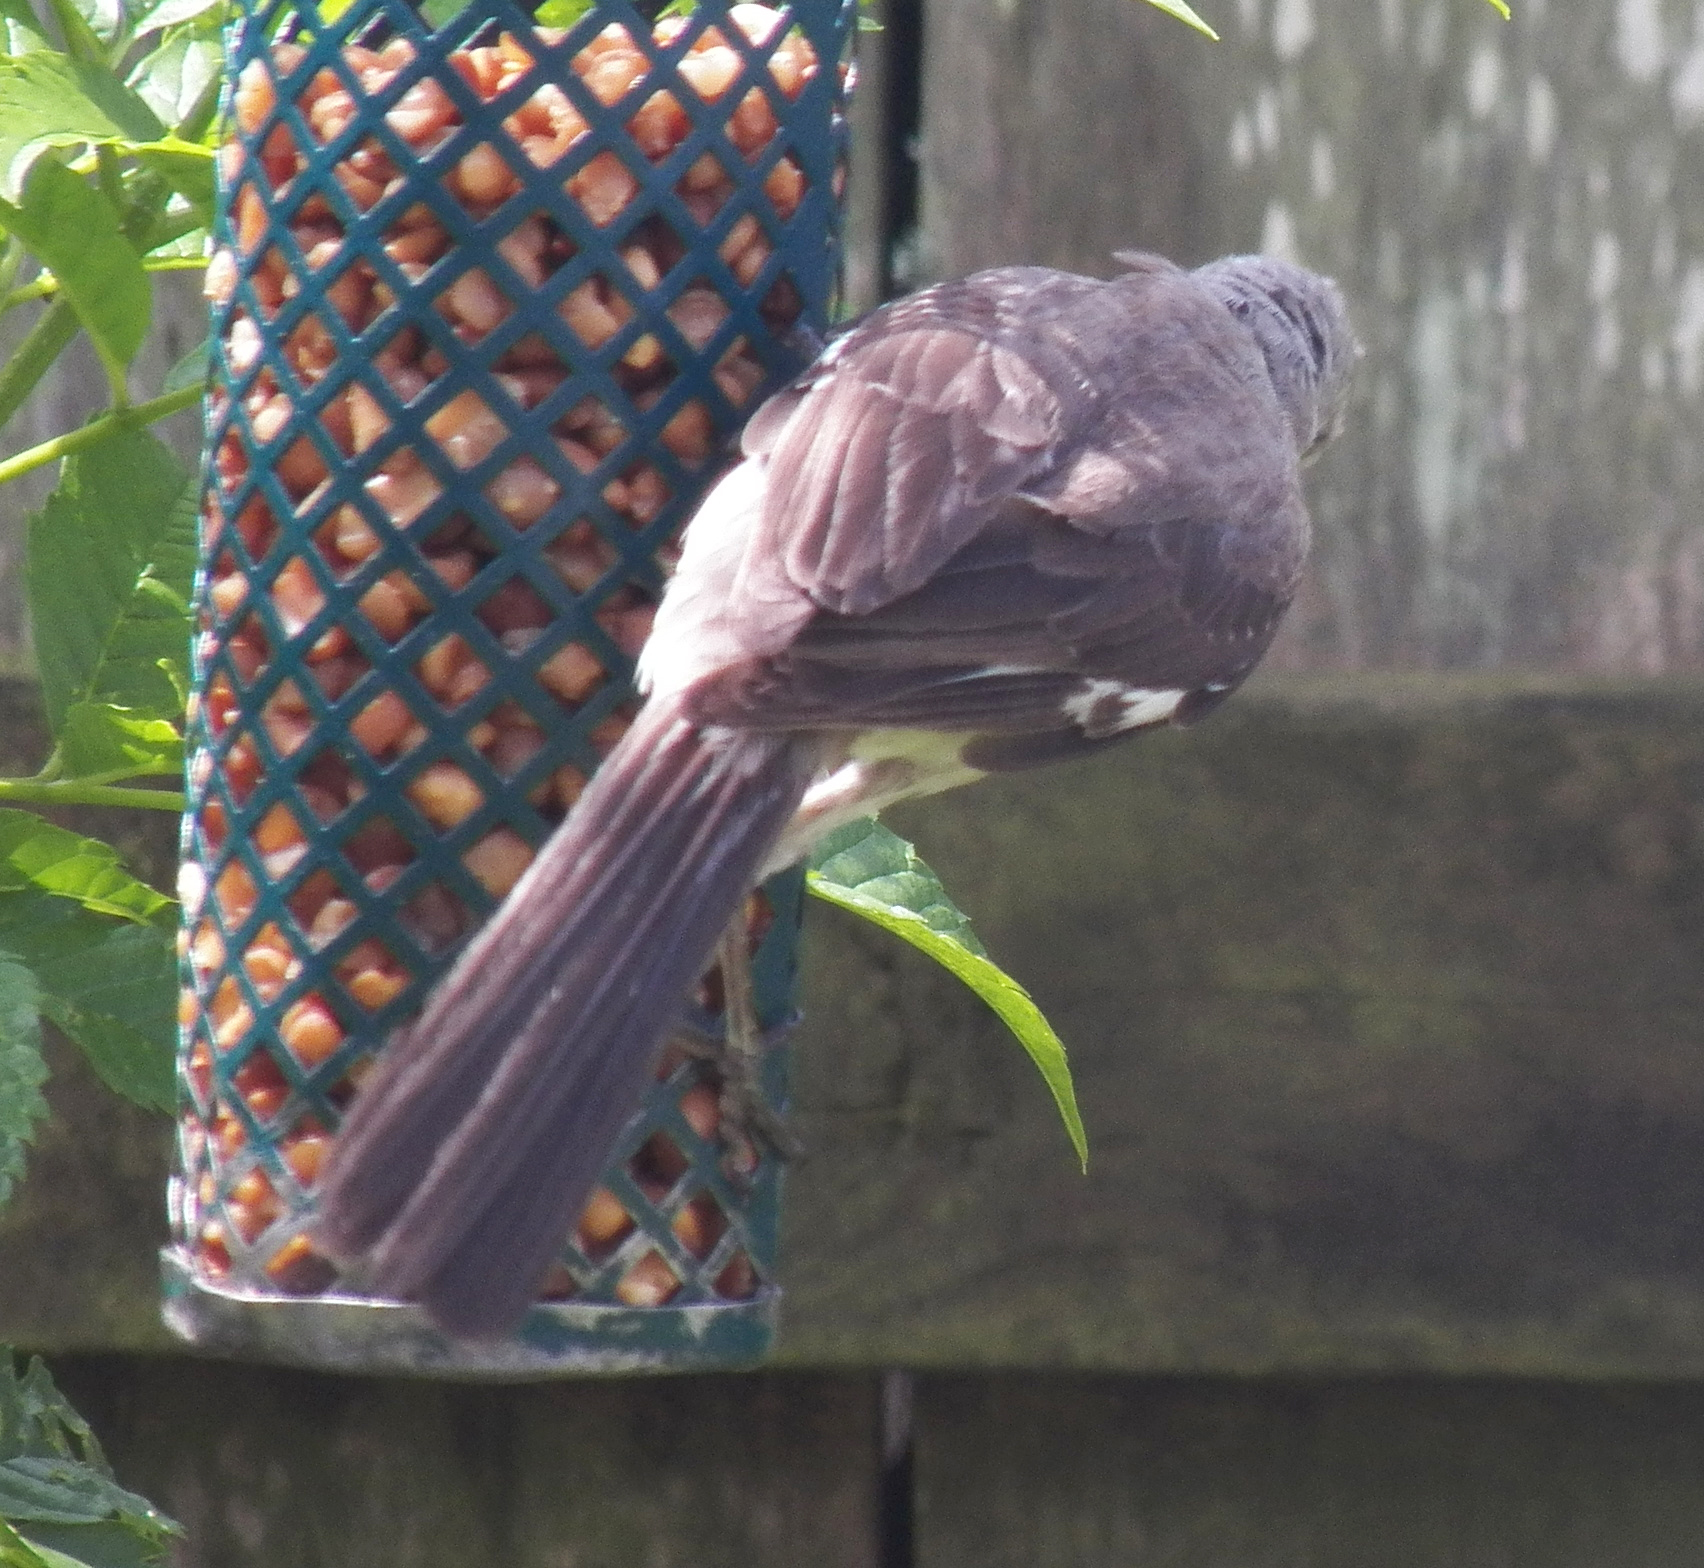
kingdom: Animalia
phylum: Chordata
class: Aves
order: Passeriformes
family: Mimidae
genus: Mimus
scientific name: Mimus polyglottos
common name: Northern mockingbird
